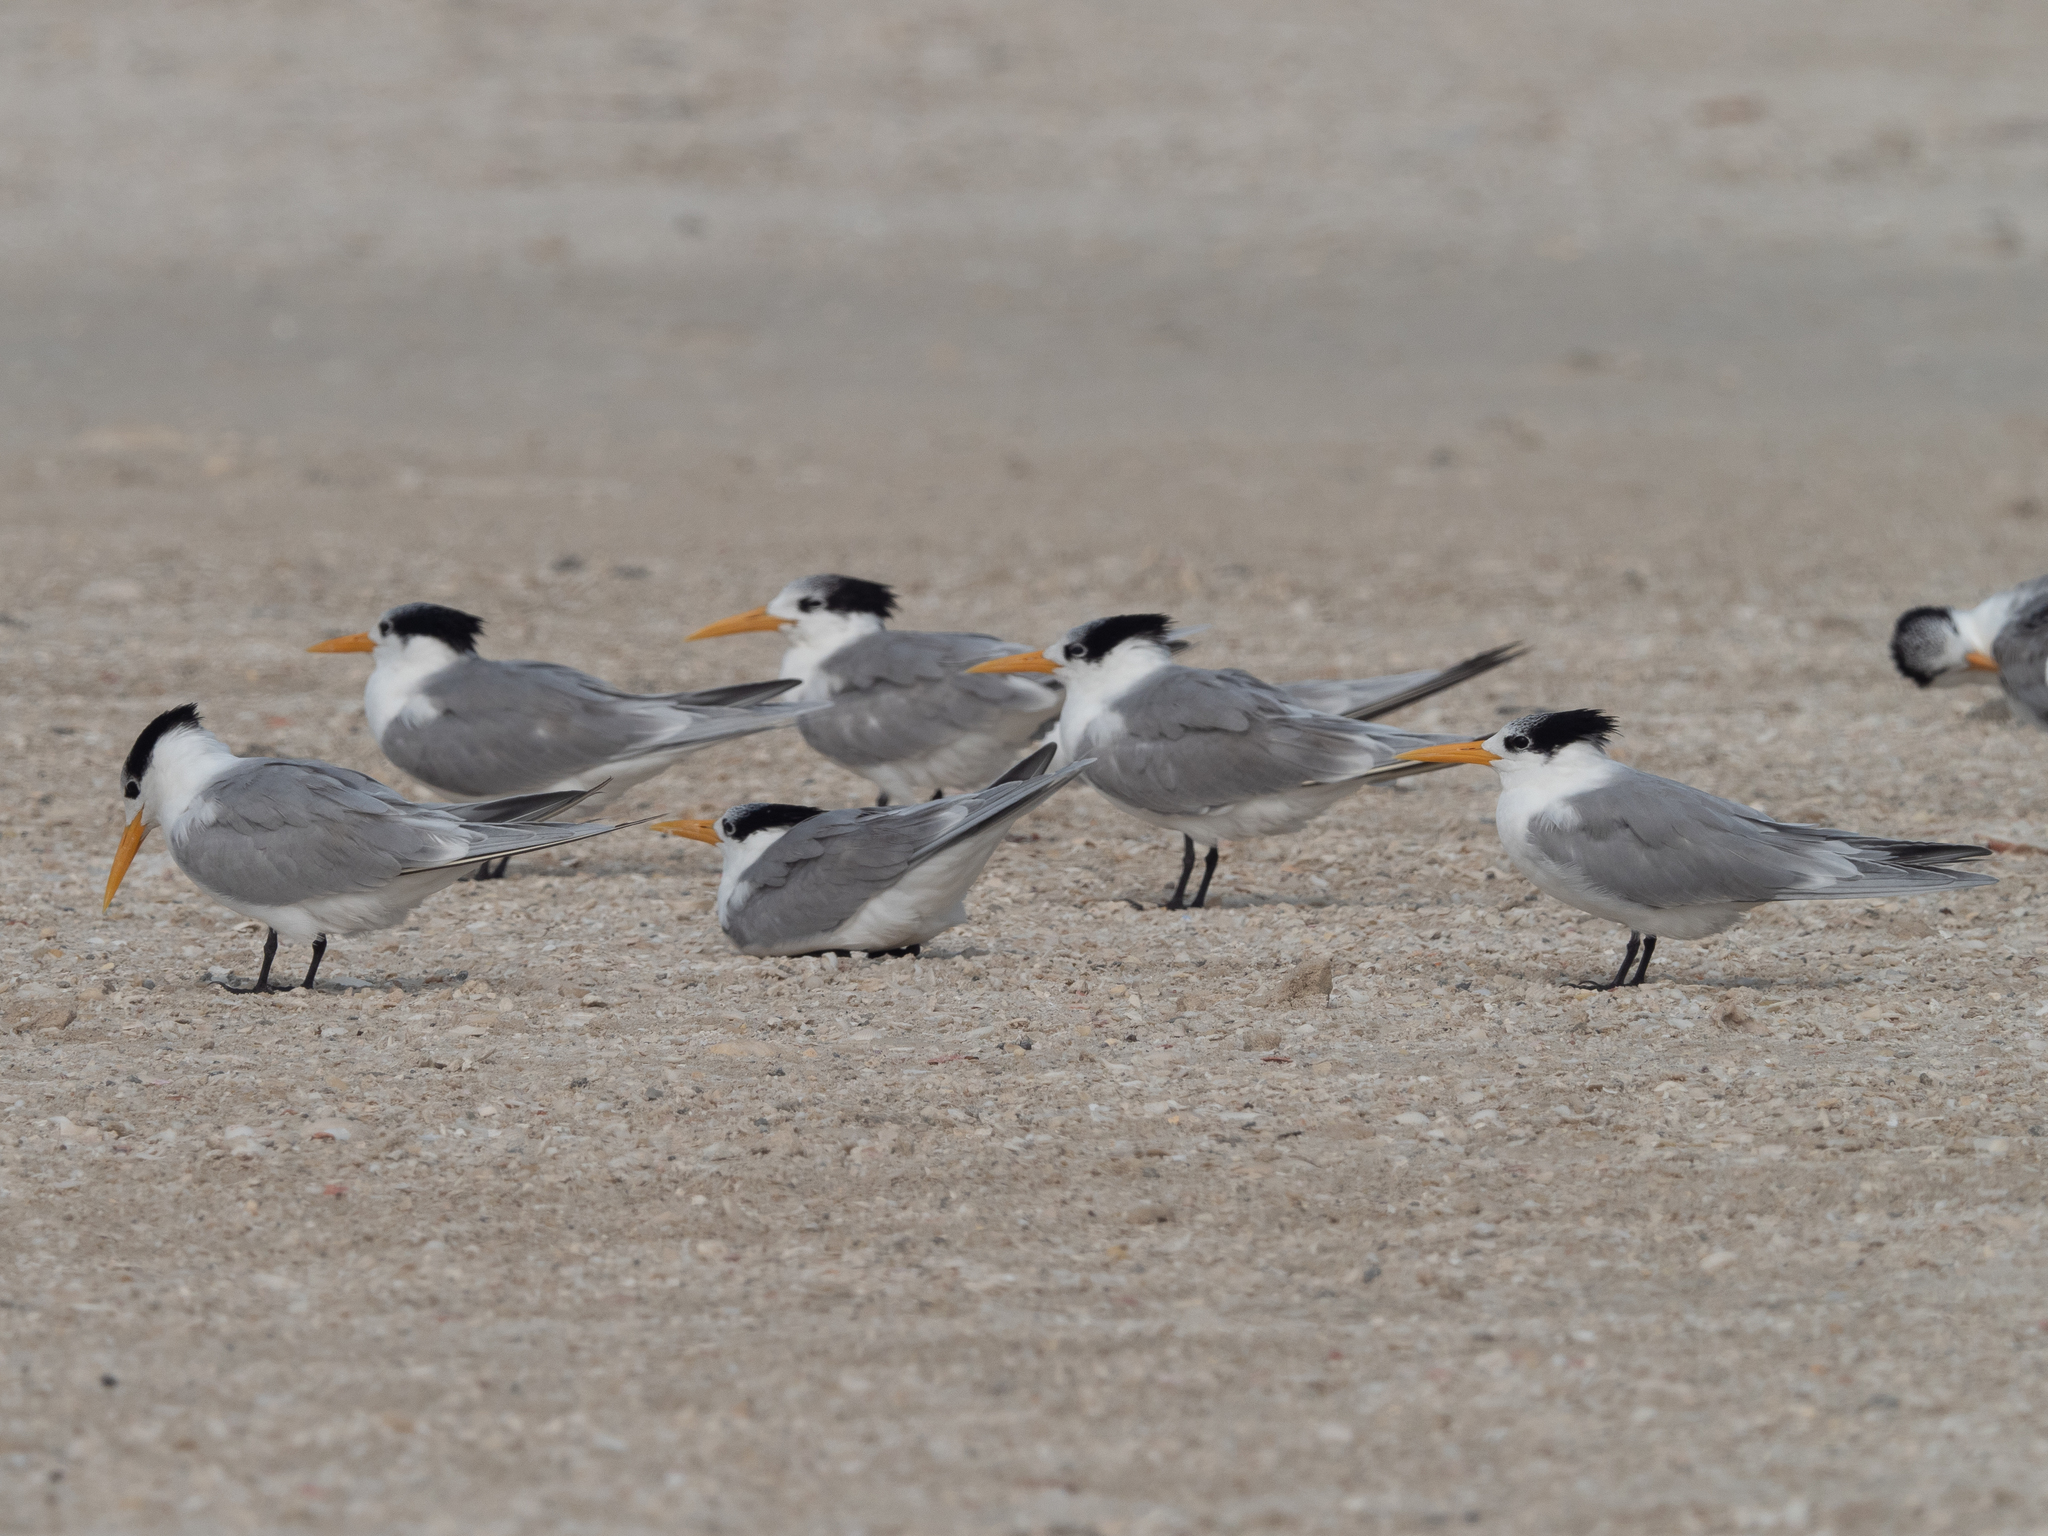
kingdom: Animalia
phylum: Chordata
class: Aves
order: Charadriiformes
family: Laridae
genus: Thalasseus
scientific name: Thalasseus bengalensis
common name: Lesser crested tern
